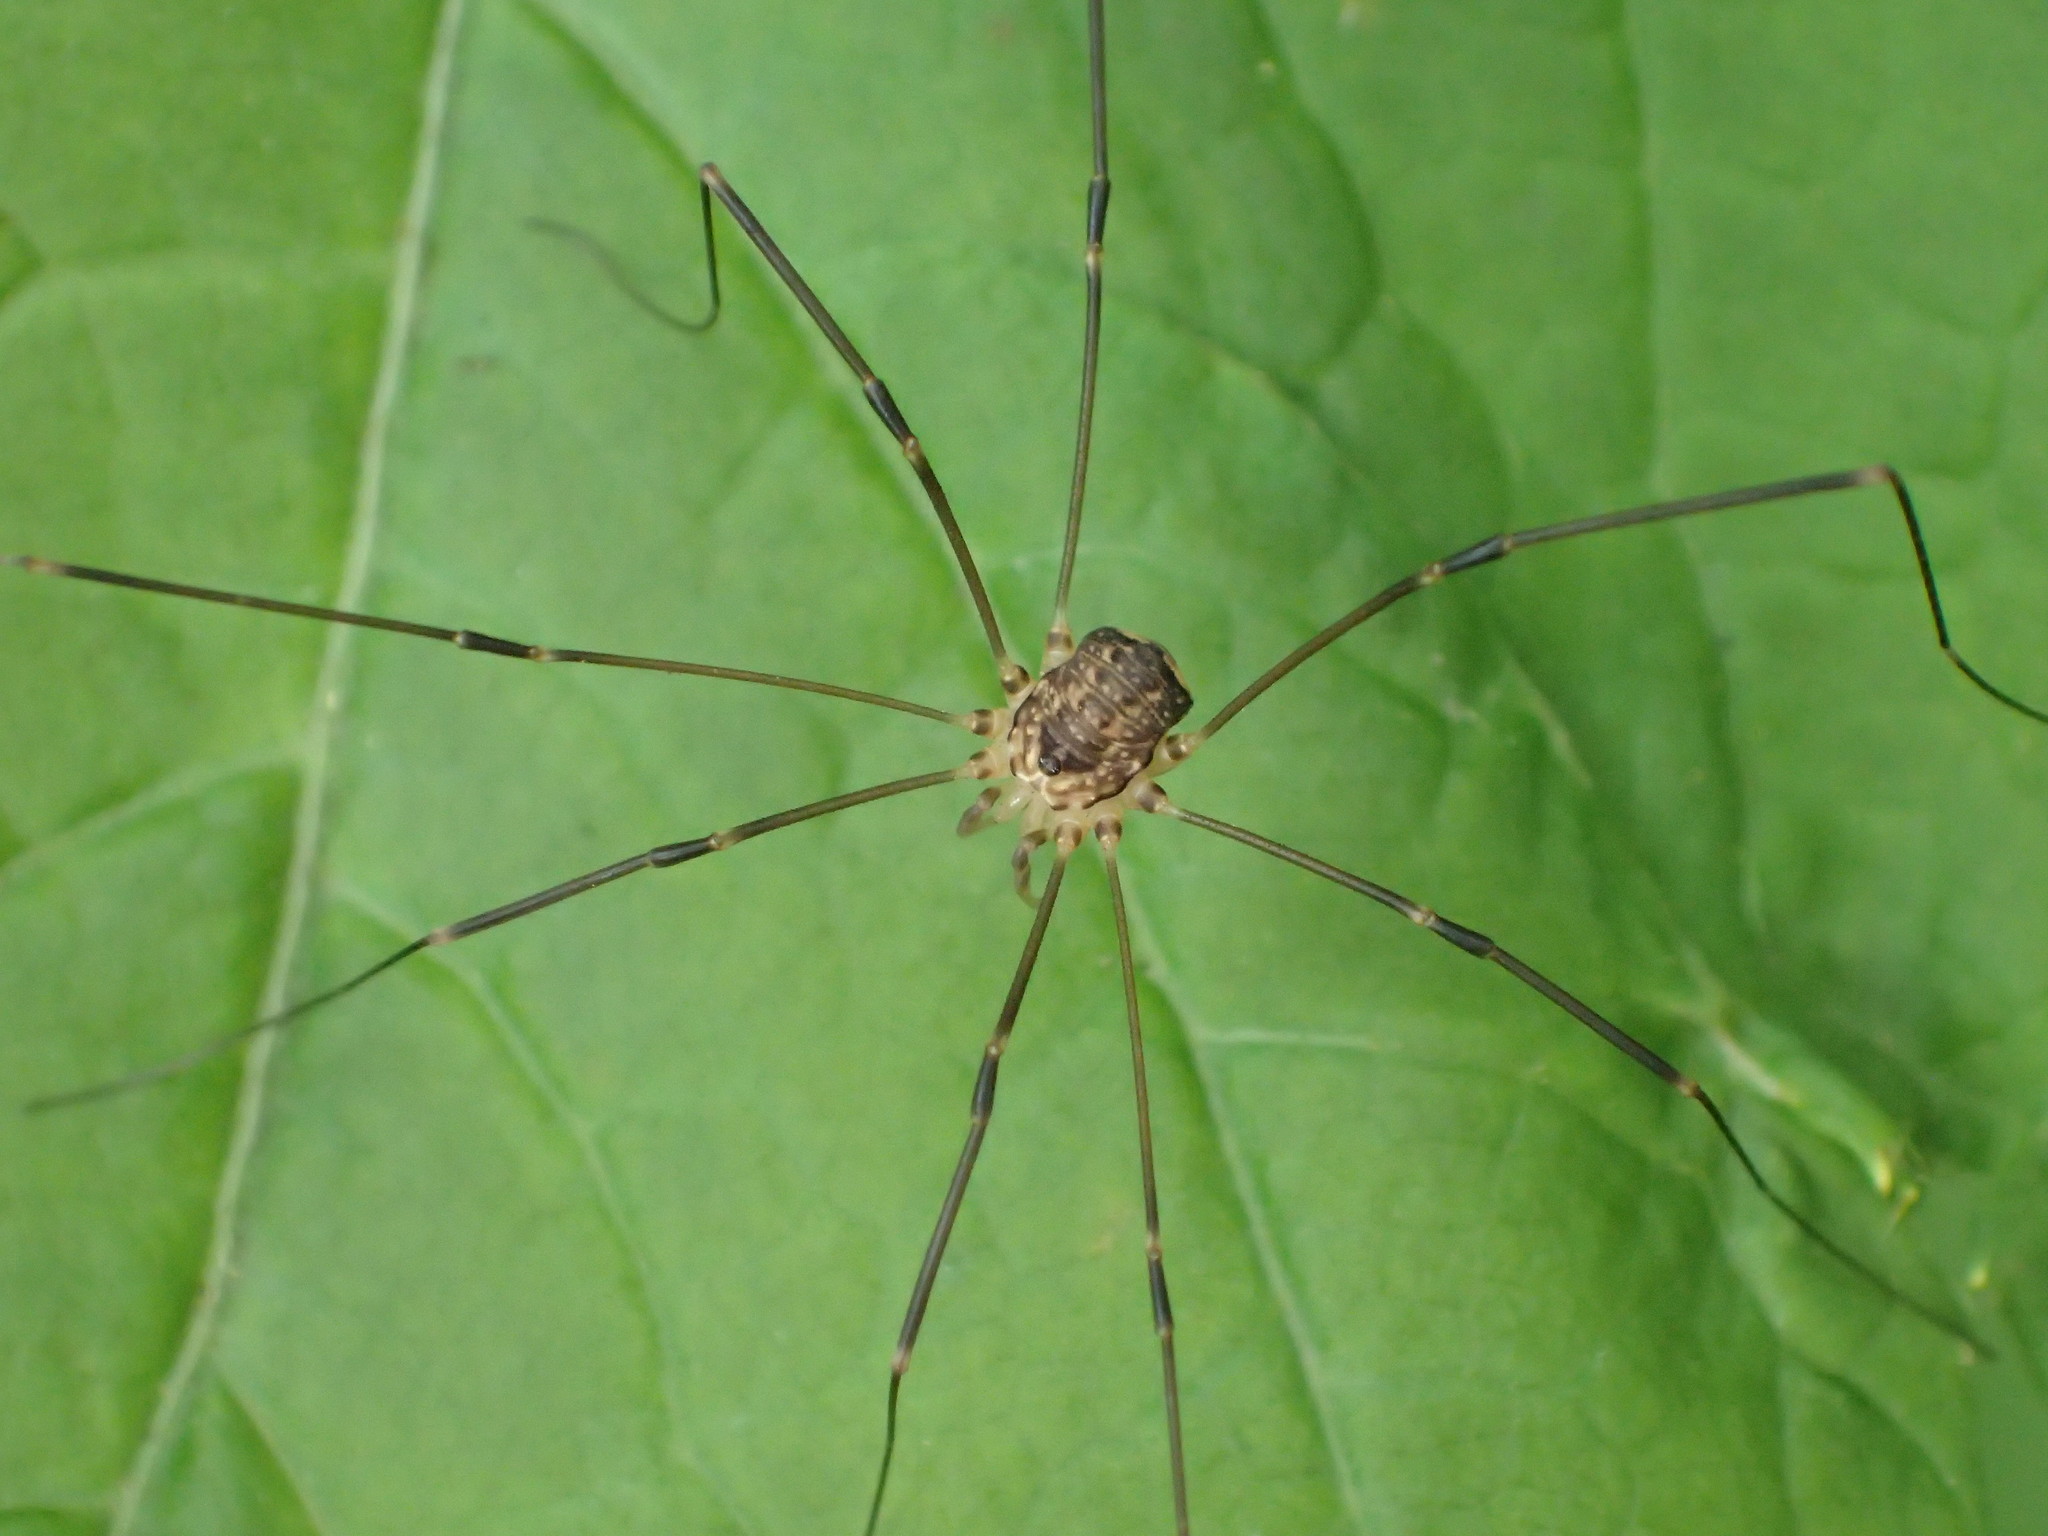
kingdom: Animalia
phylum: Arthropoda
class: Arachnida
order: Opiliones
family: Sclerosomatidae
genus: Nelima
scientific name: Nelima paessleri
